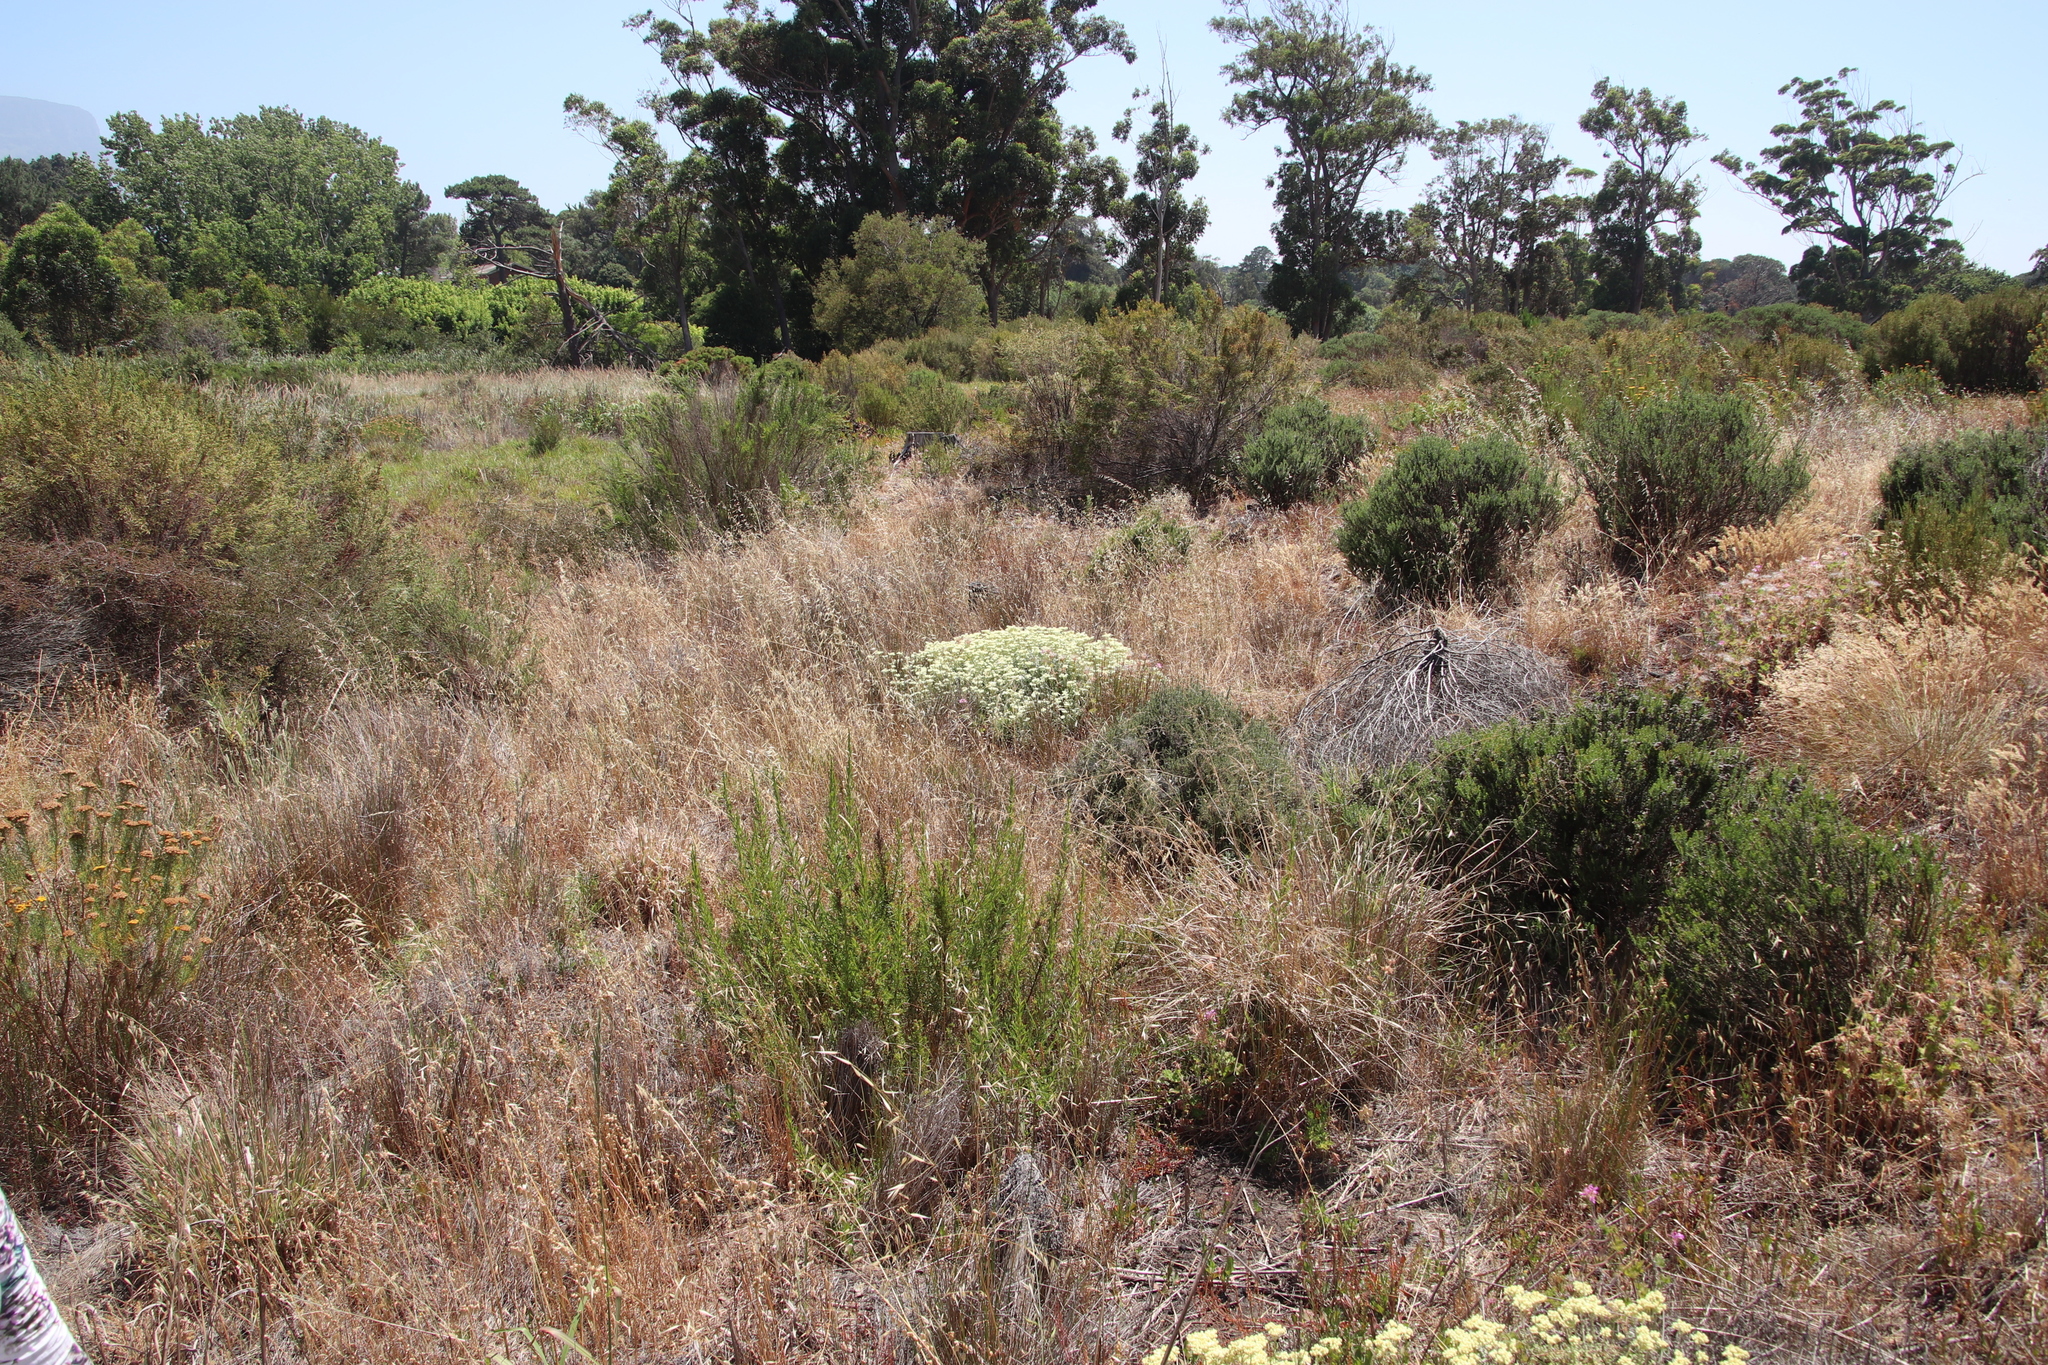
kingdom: Plantae
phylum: Tracheophyta
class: Magnoliopsida
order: Asterales
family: Asteraceae
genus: Helichrysum
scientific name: Helichrysum patulum
